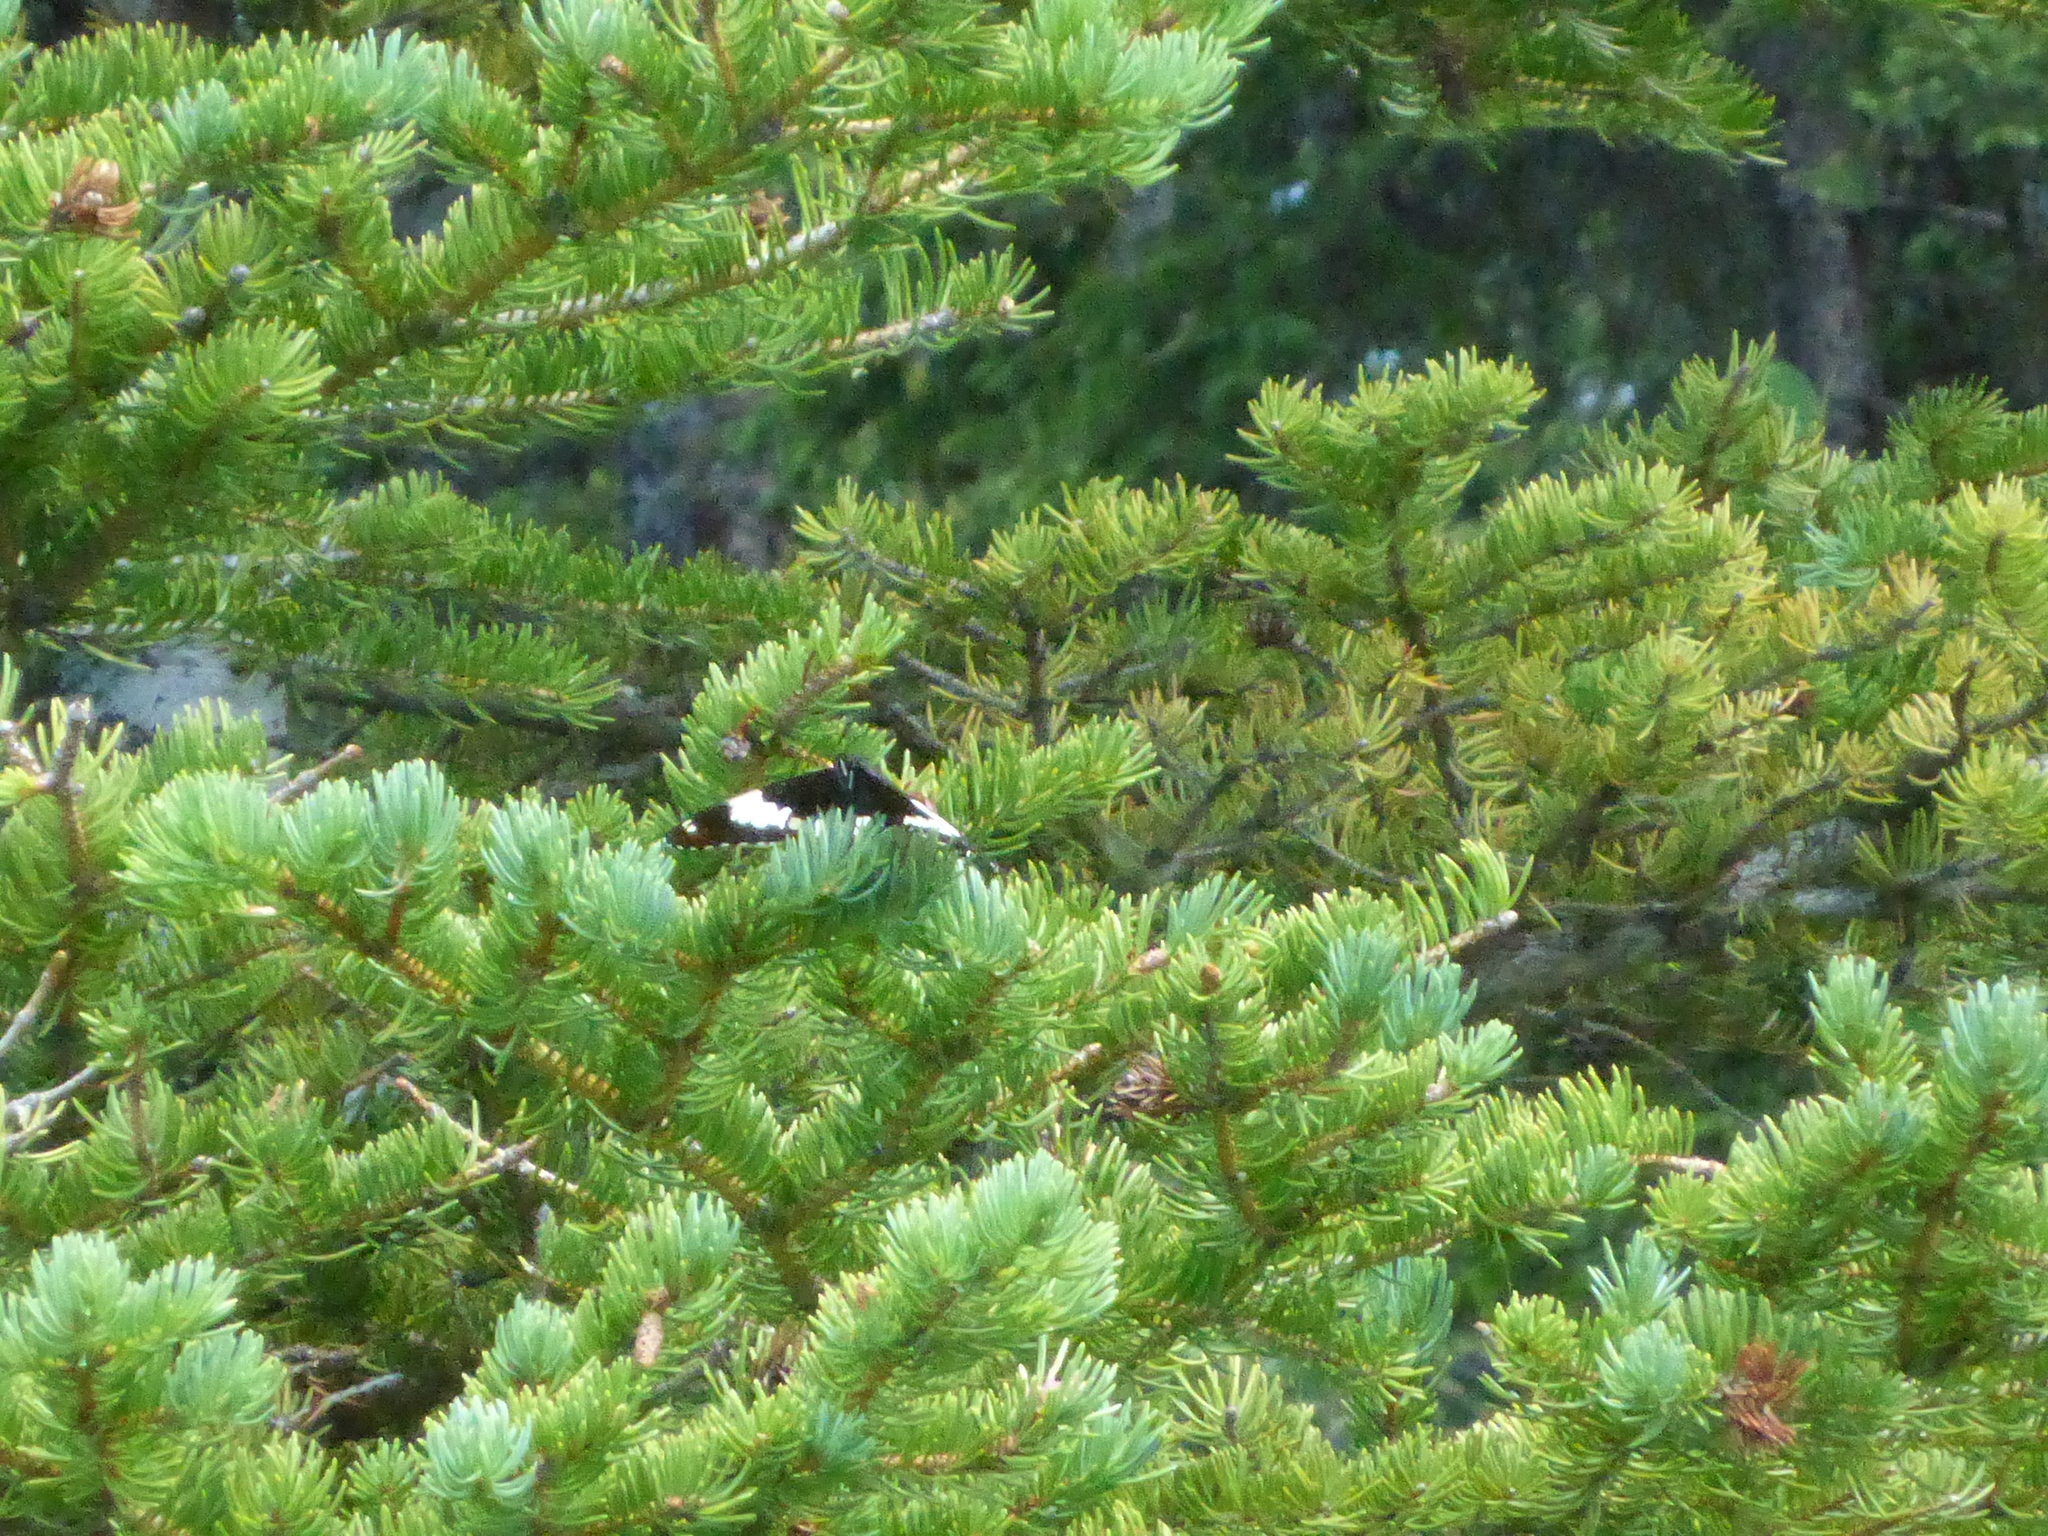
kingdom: Animalia
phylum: Arthropoda
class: Insecta
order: Lepidoptera
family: Nymphalidae
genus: Limenitis
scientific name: Limenitis arthemis
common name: Red-spotted admiral
